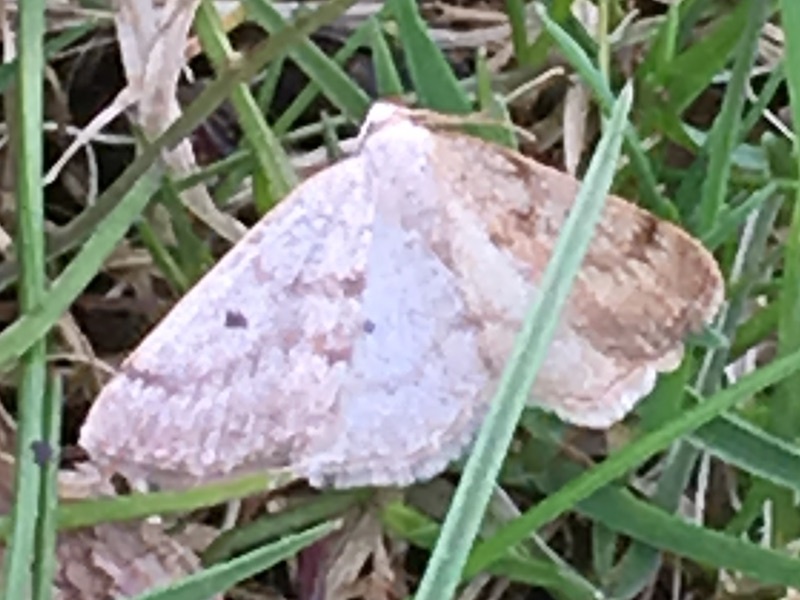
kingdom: Animalia
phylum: Arthropoda
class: Insecta
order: Lepidoptera
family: Geometridae
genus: Lomographa
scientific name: Lomographa glomeraria
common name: Gray spring moth
